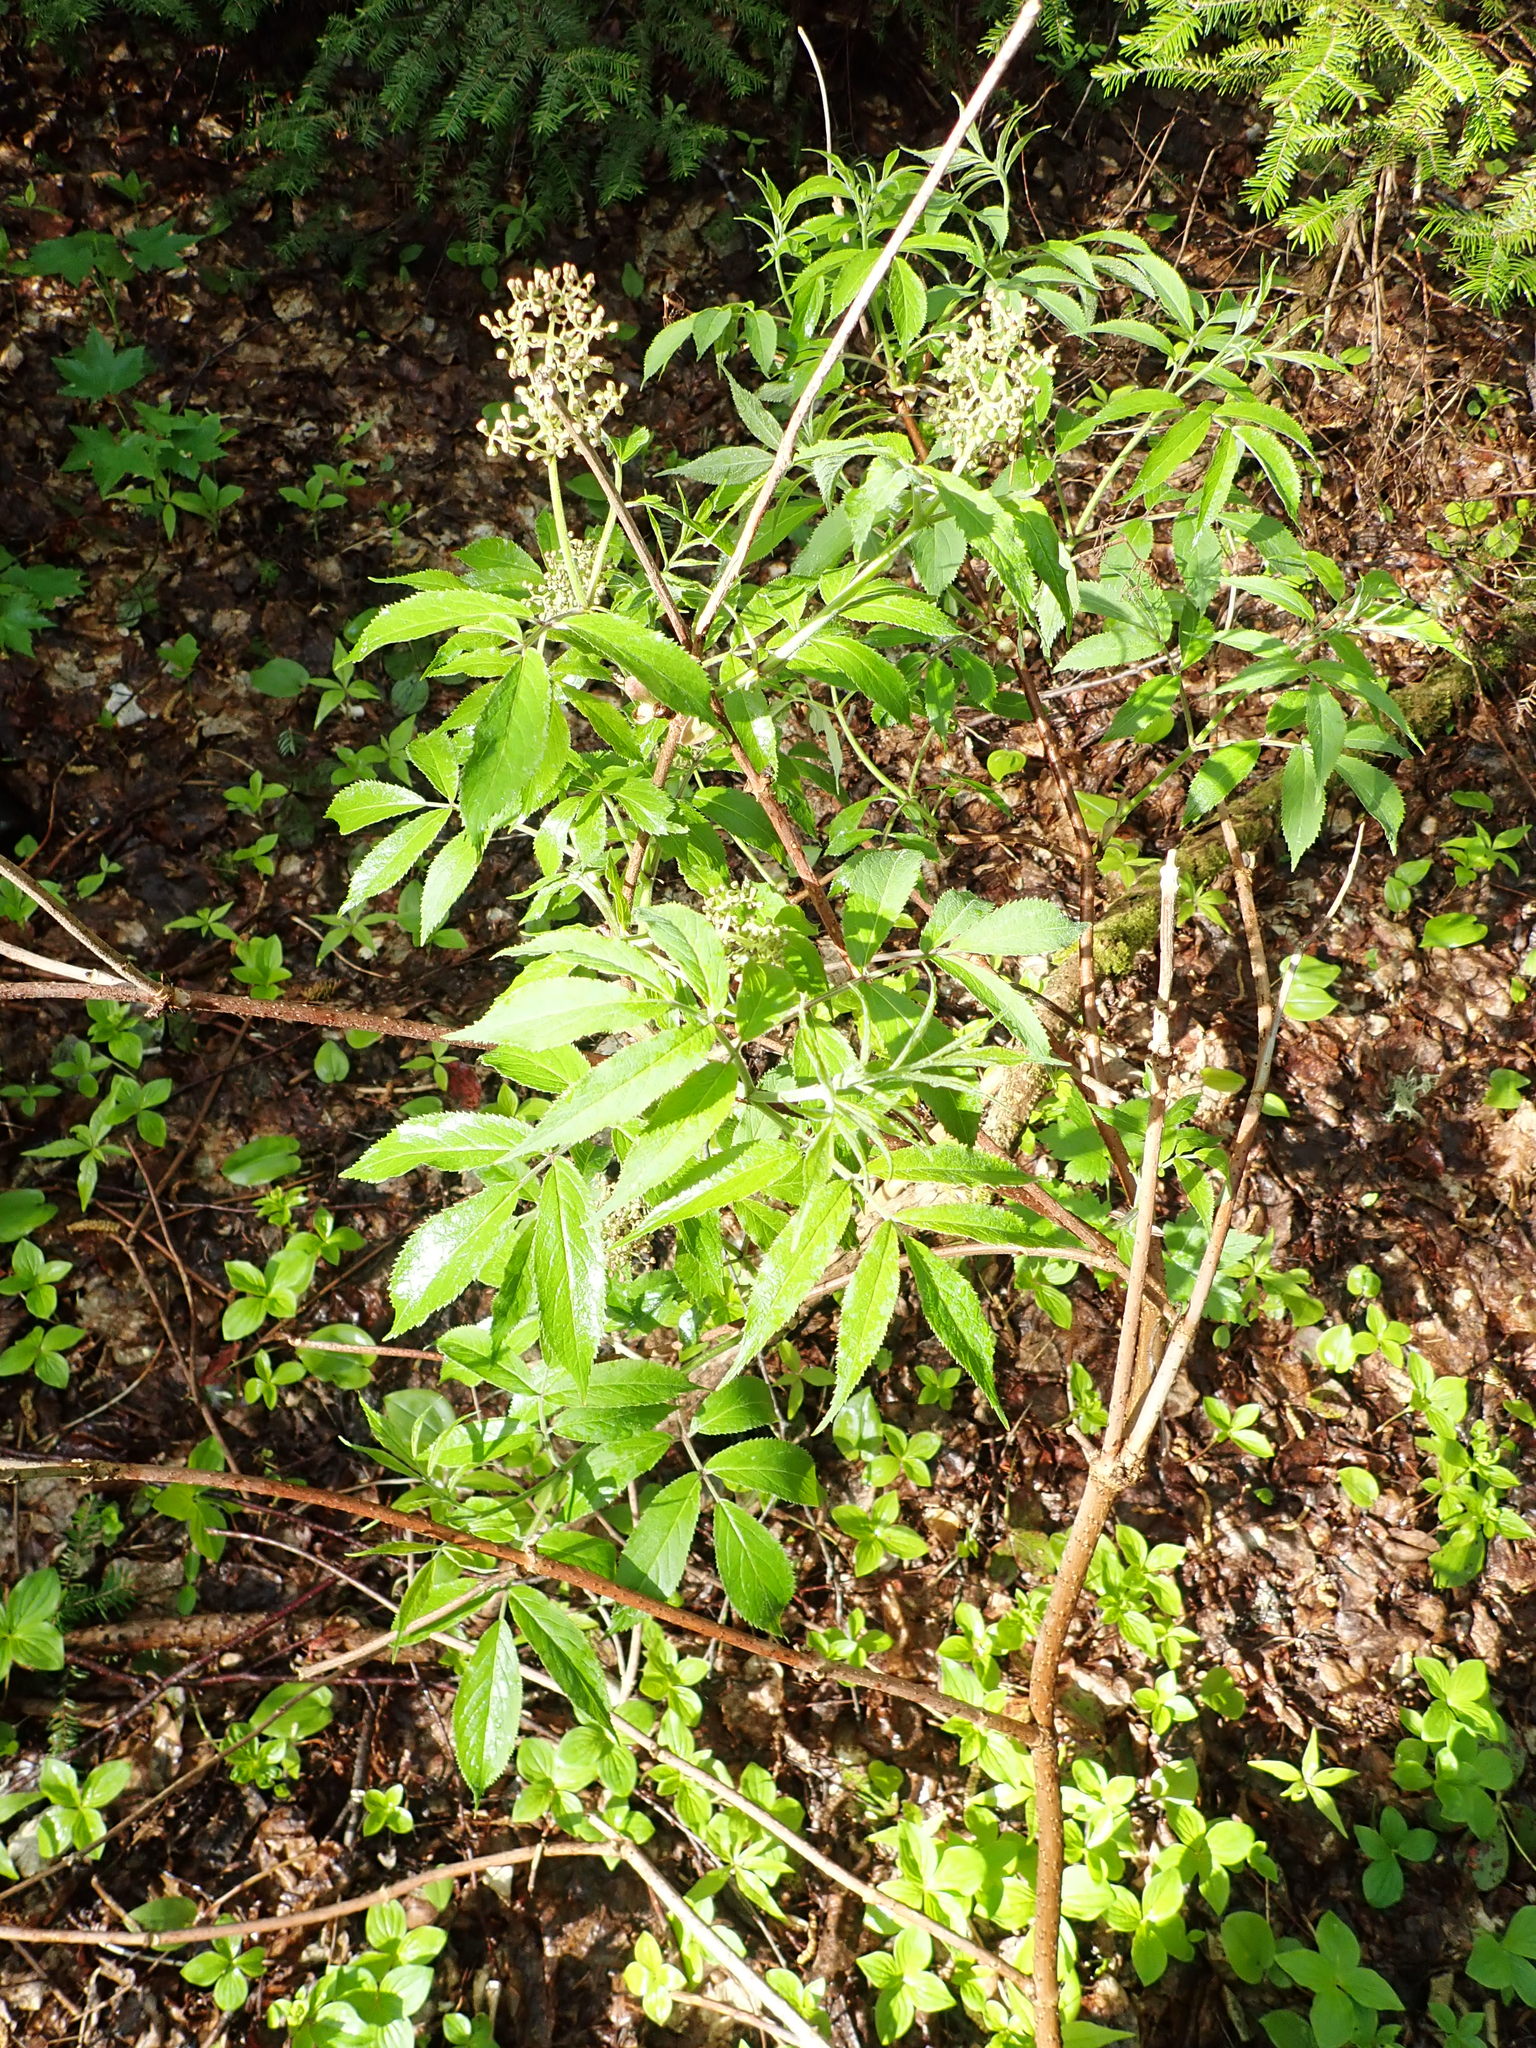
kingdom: Plantae
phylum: Tracheophyta
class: Magnoliopsida
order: Dipsacales
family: Viburnaceae
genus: Sambucus
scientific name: Sambucus racemosa
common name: Red-berried elder
